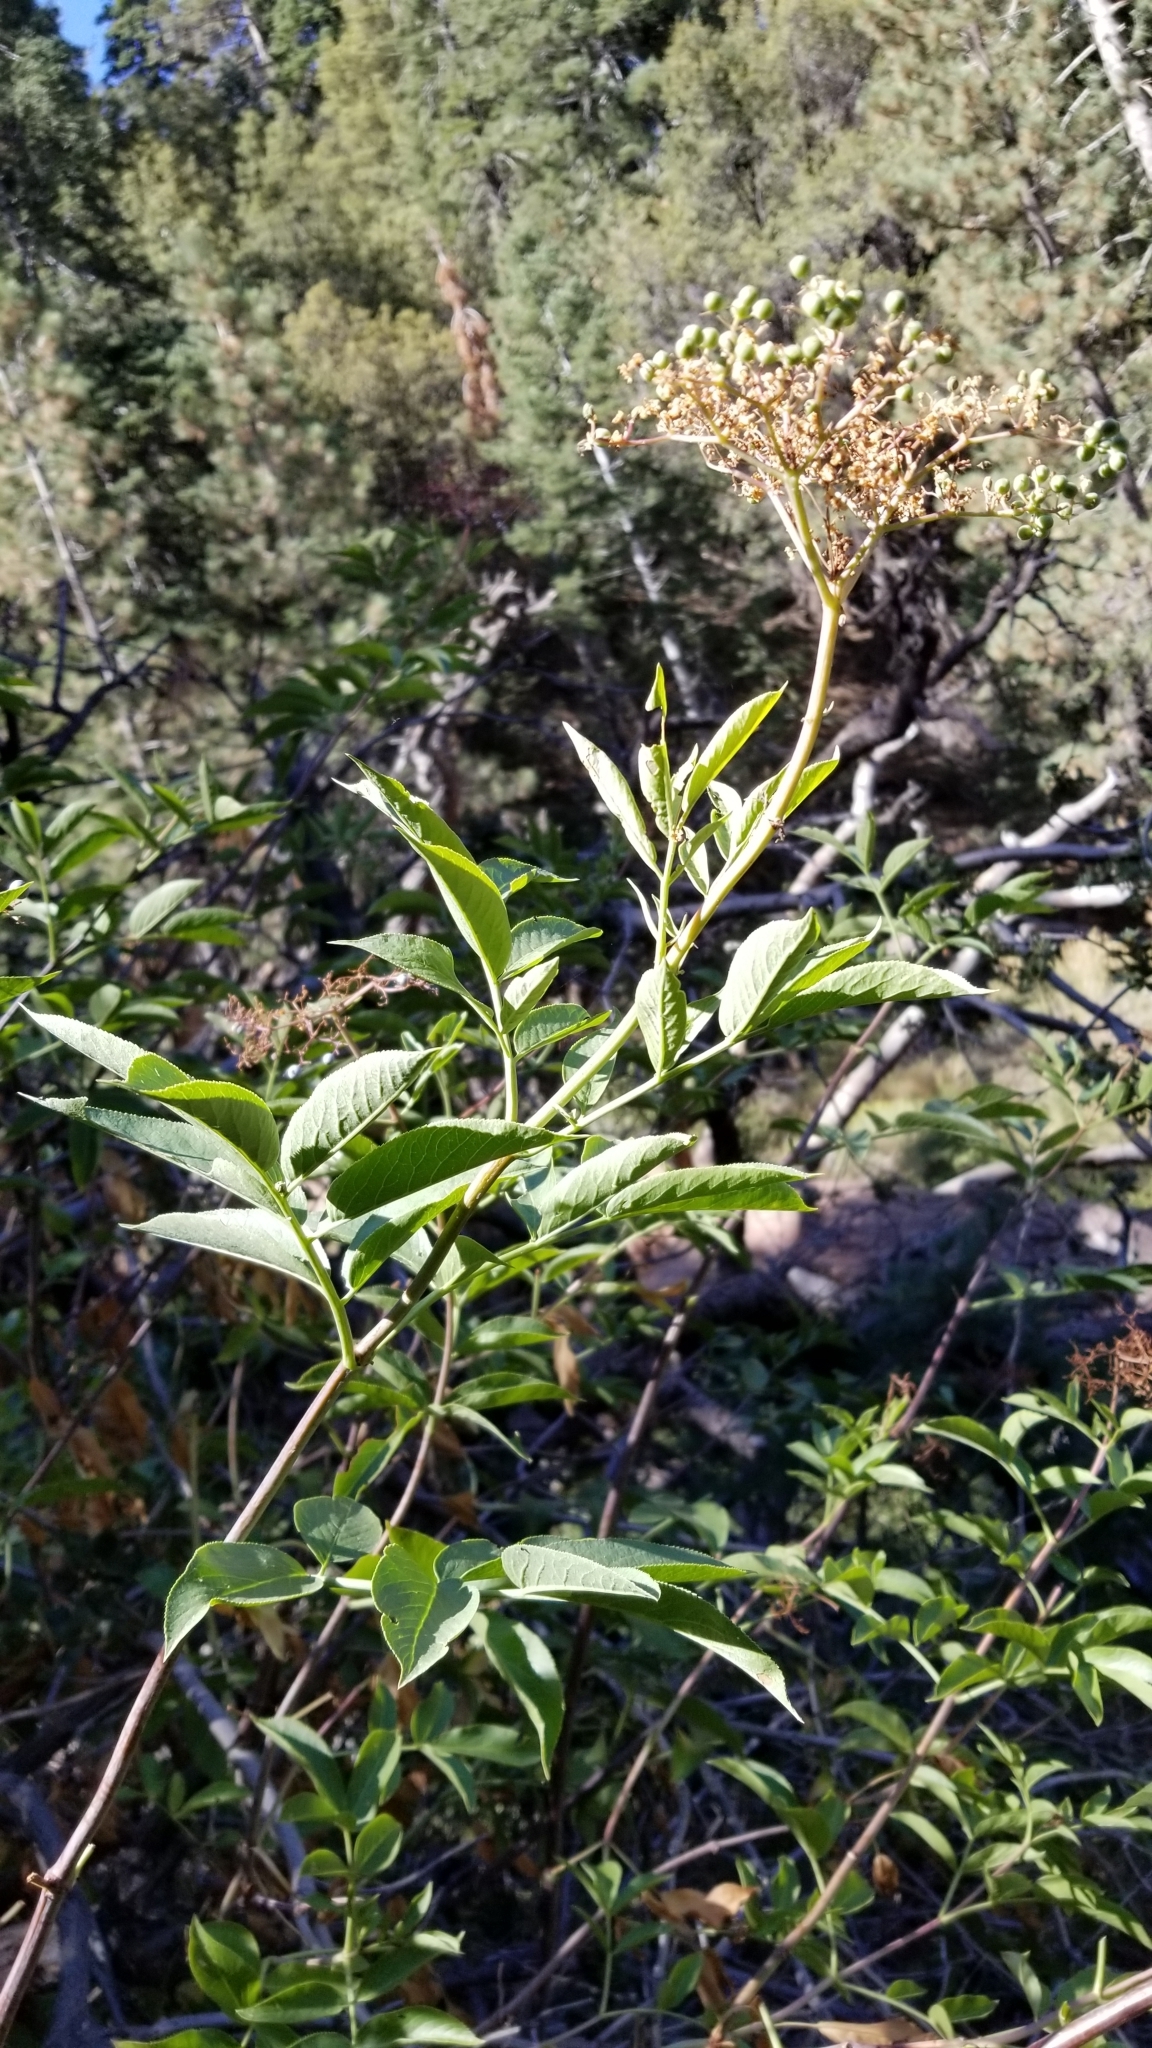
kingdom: Plantae
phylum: Tracheophyta
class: Magnoliopsida
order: Dipsacales
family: Viburnaceae
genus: Sambucus
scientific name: Sambucus cerulea
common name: Blue elder
